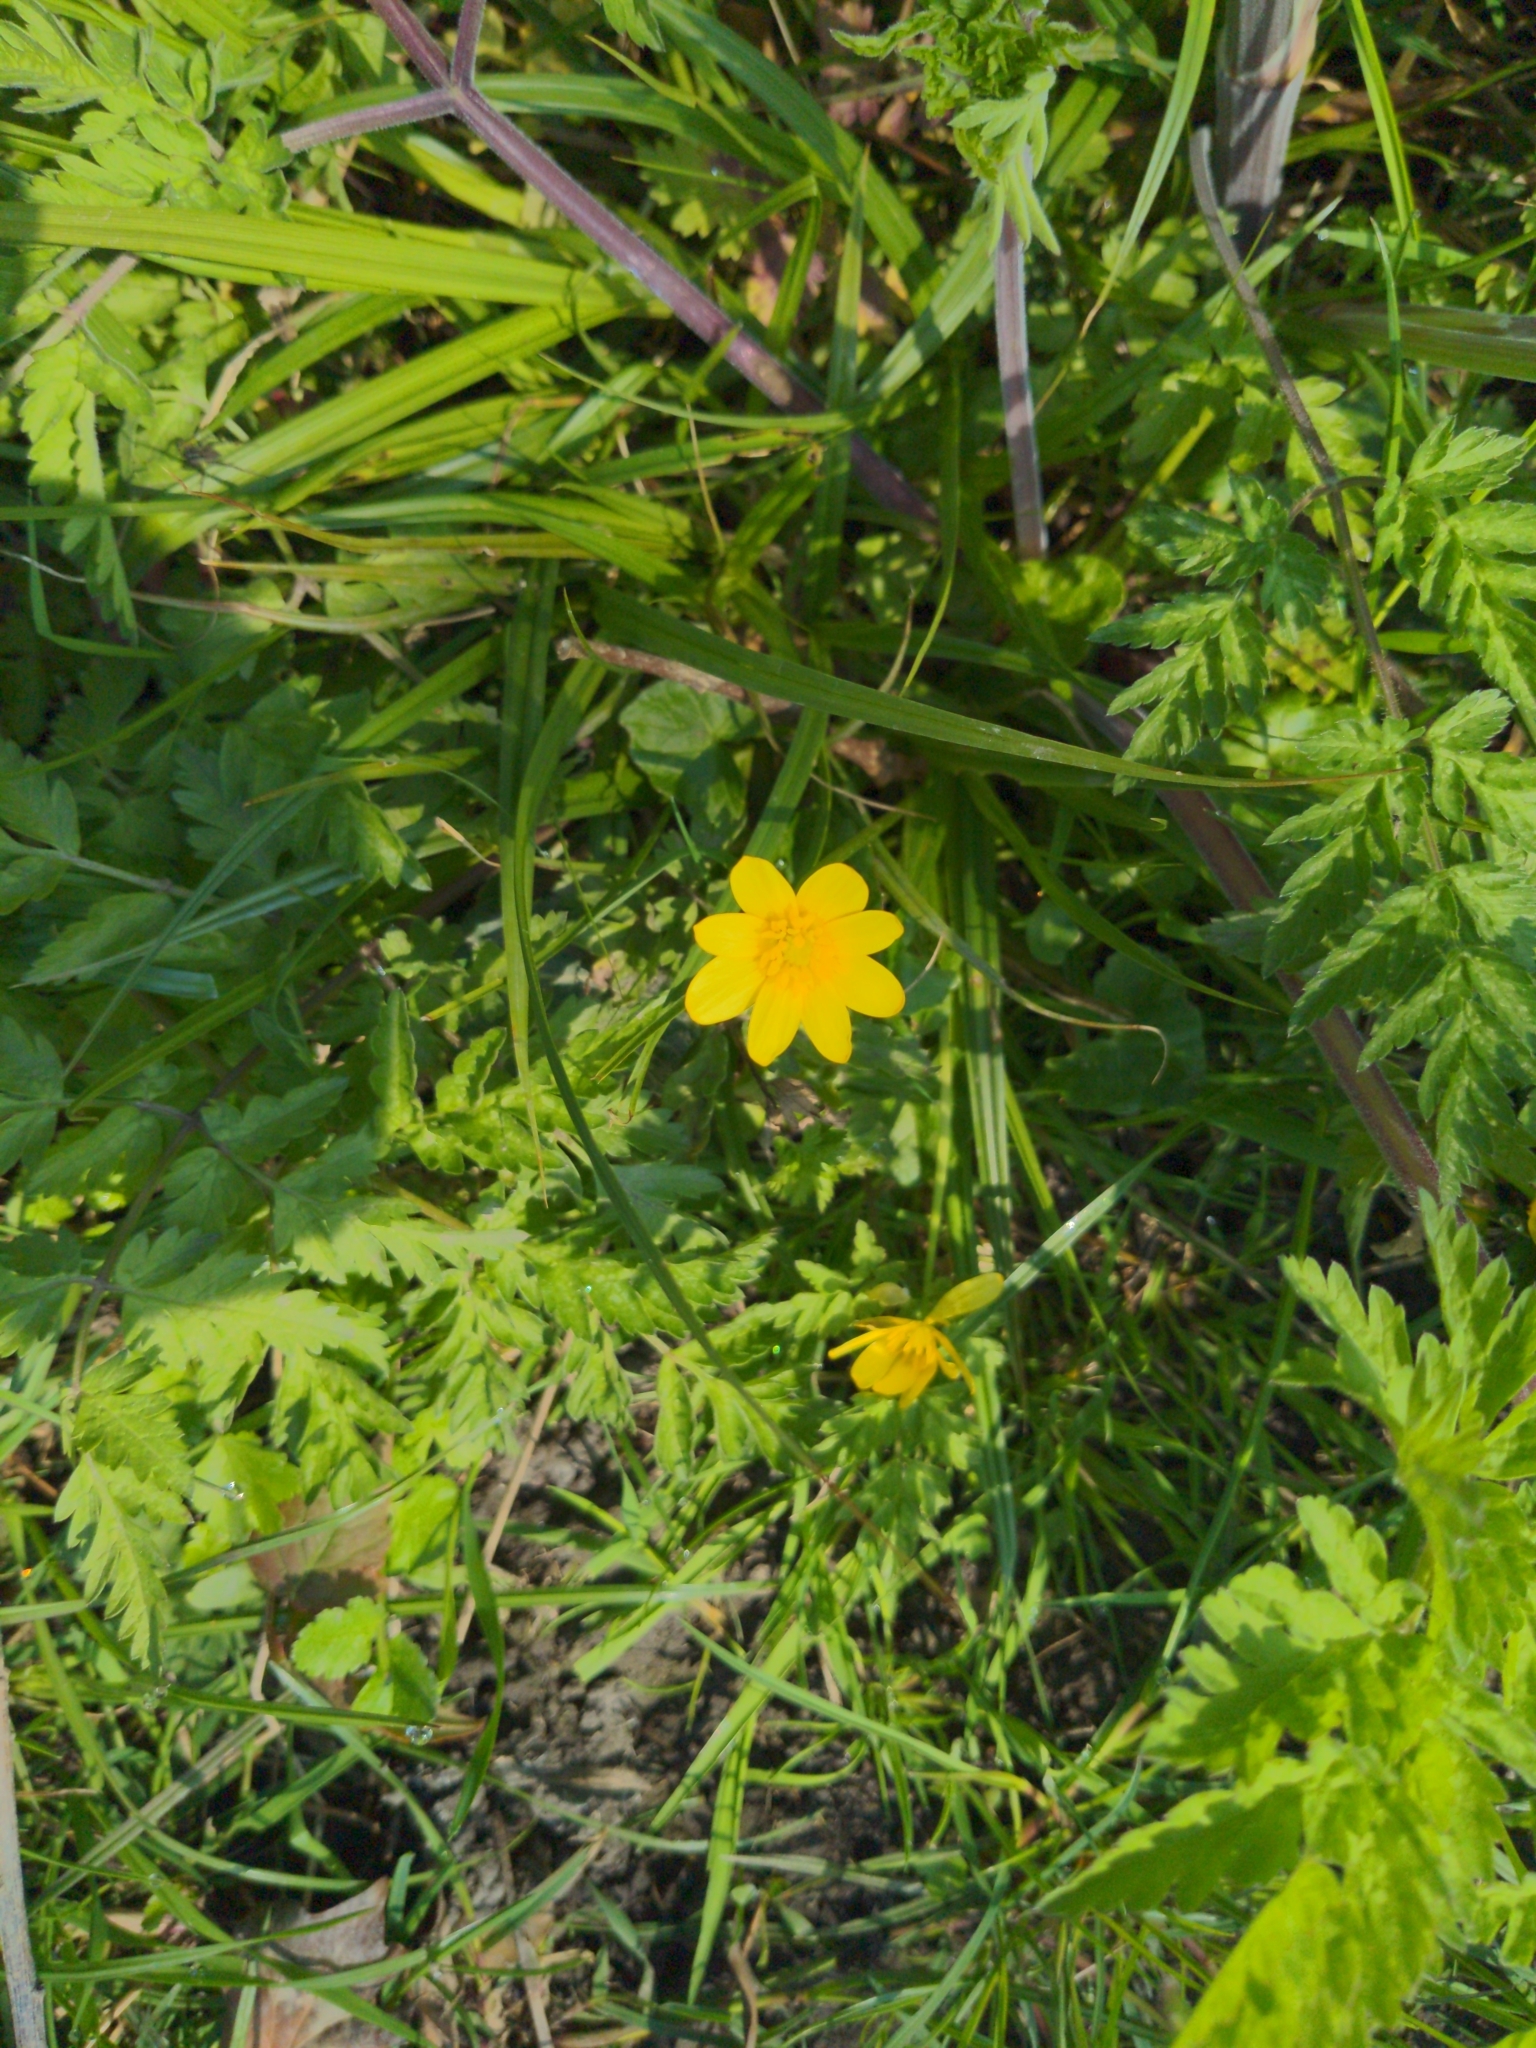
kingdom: Plantae
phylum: Tracheophyta
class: Magnoliopsida
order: Ranunculales
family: Ranunculaceae
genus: Ficaria
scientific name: Ficaria verna
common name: Lesser celandine
